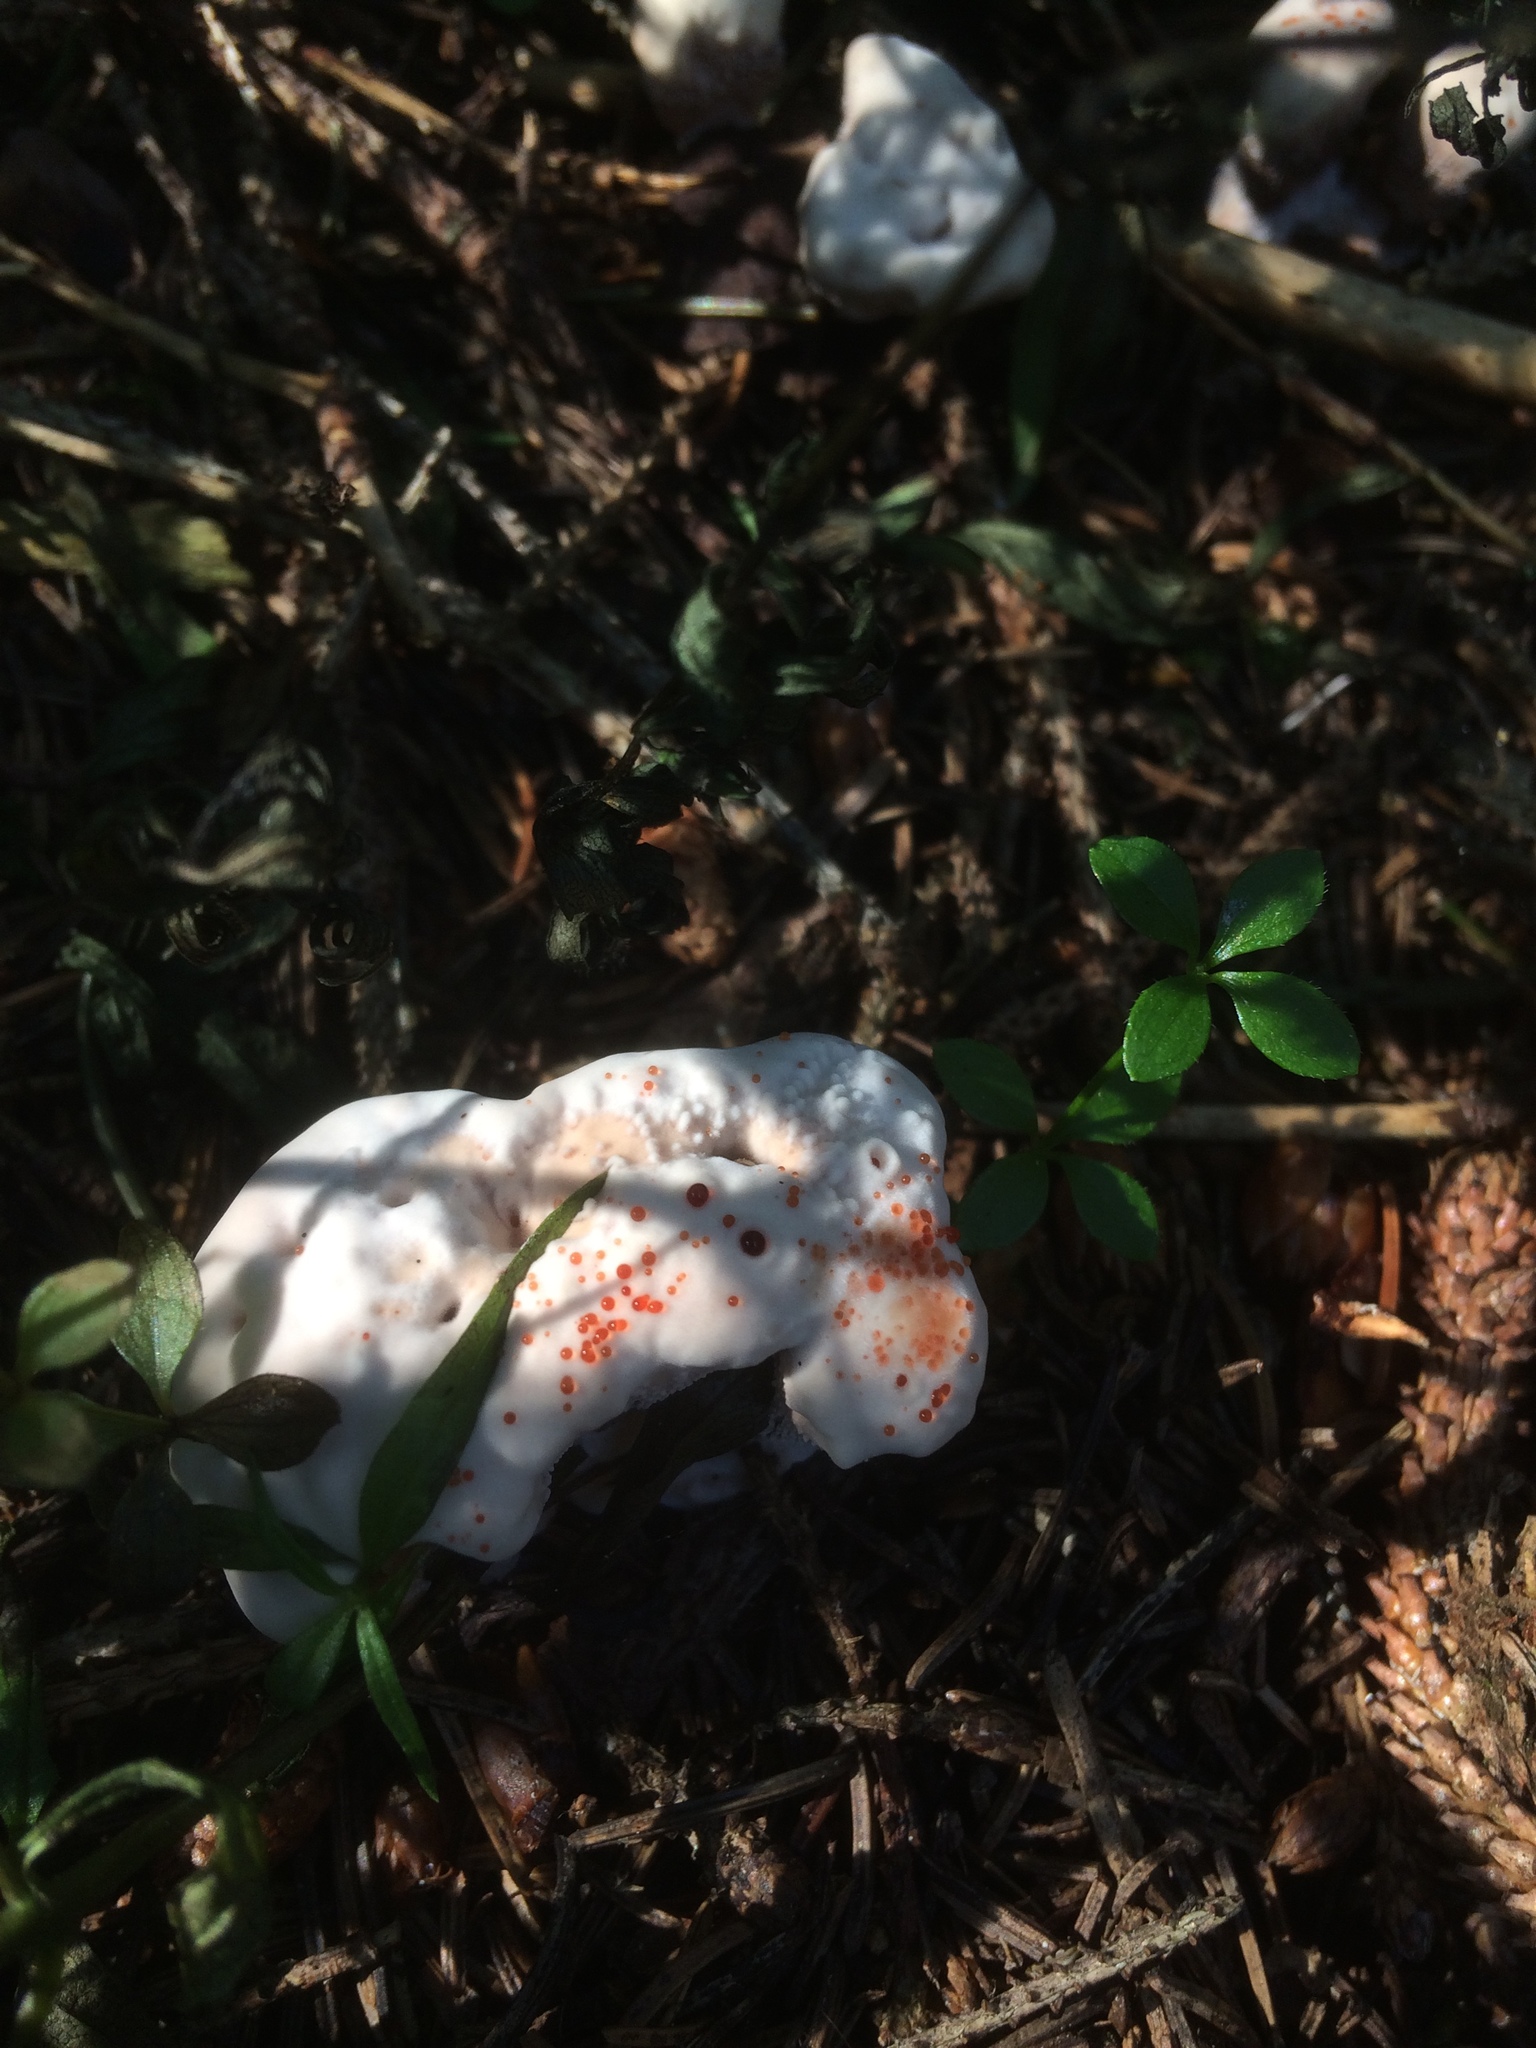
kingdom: Fungi
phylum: Basidiomycota
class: Agaricomycetes
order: Thelephorales
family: Bankeraceae
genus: Hydnellum
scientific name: Hydnellum peckii
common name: Devil's tooth
